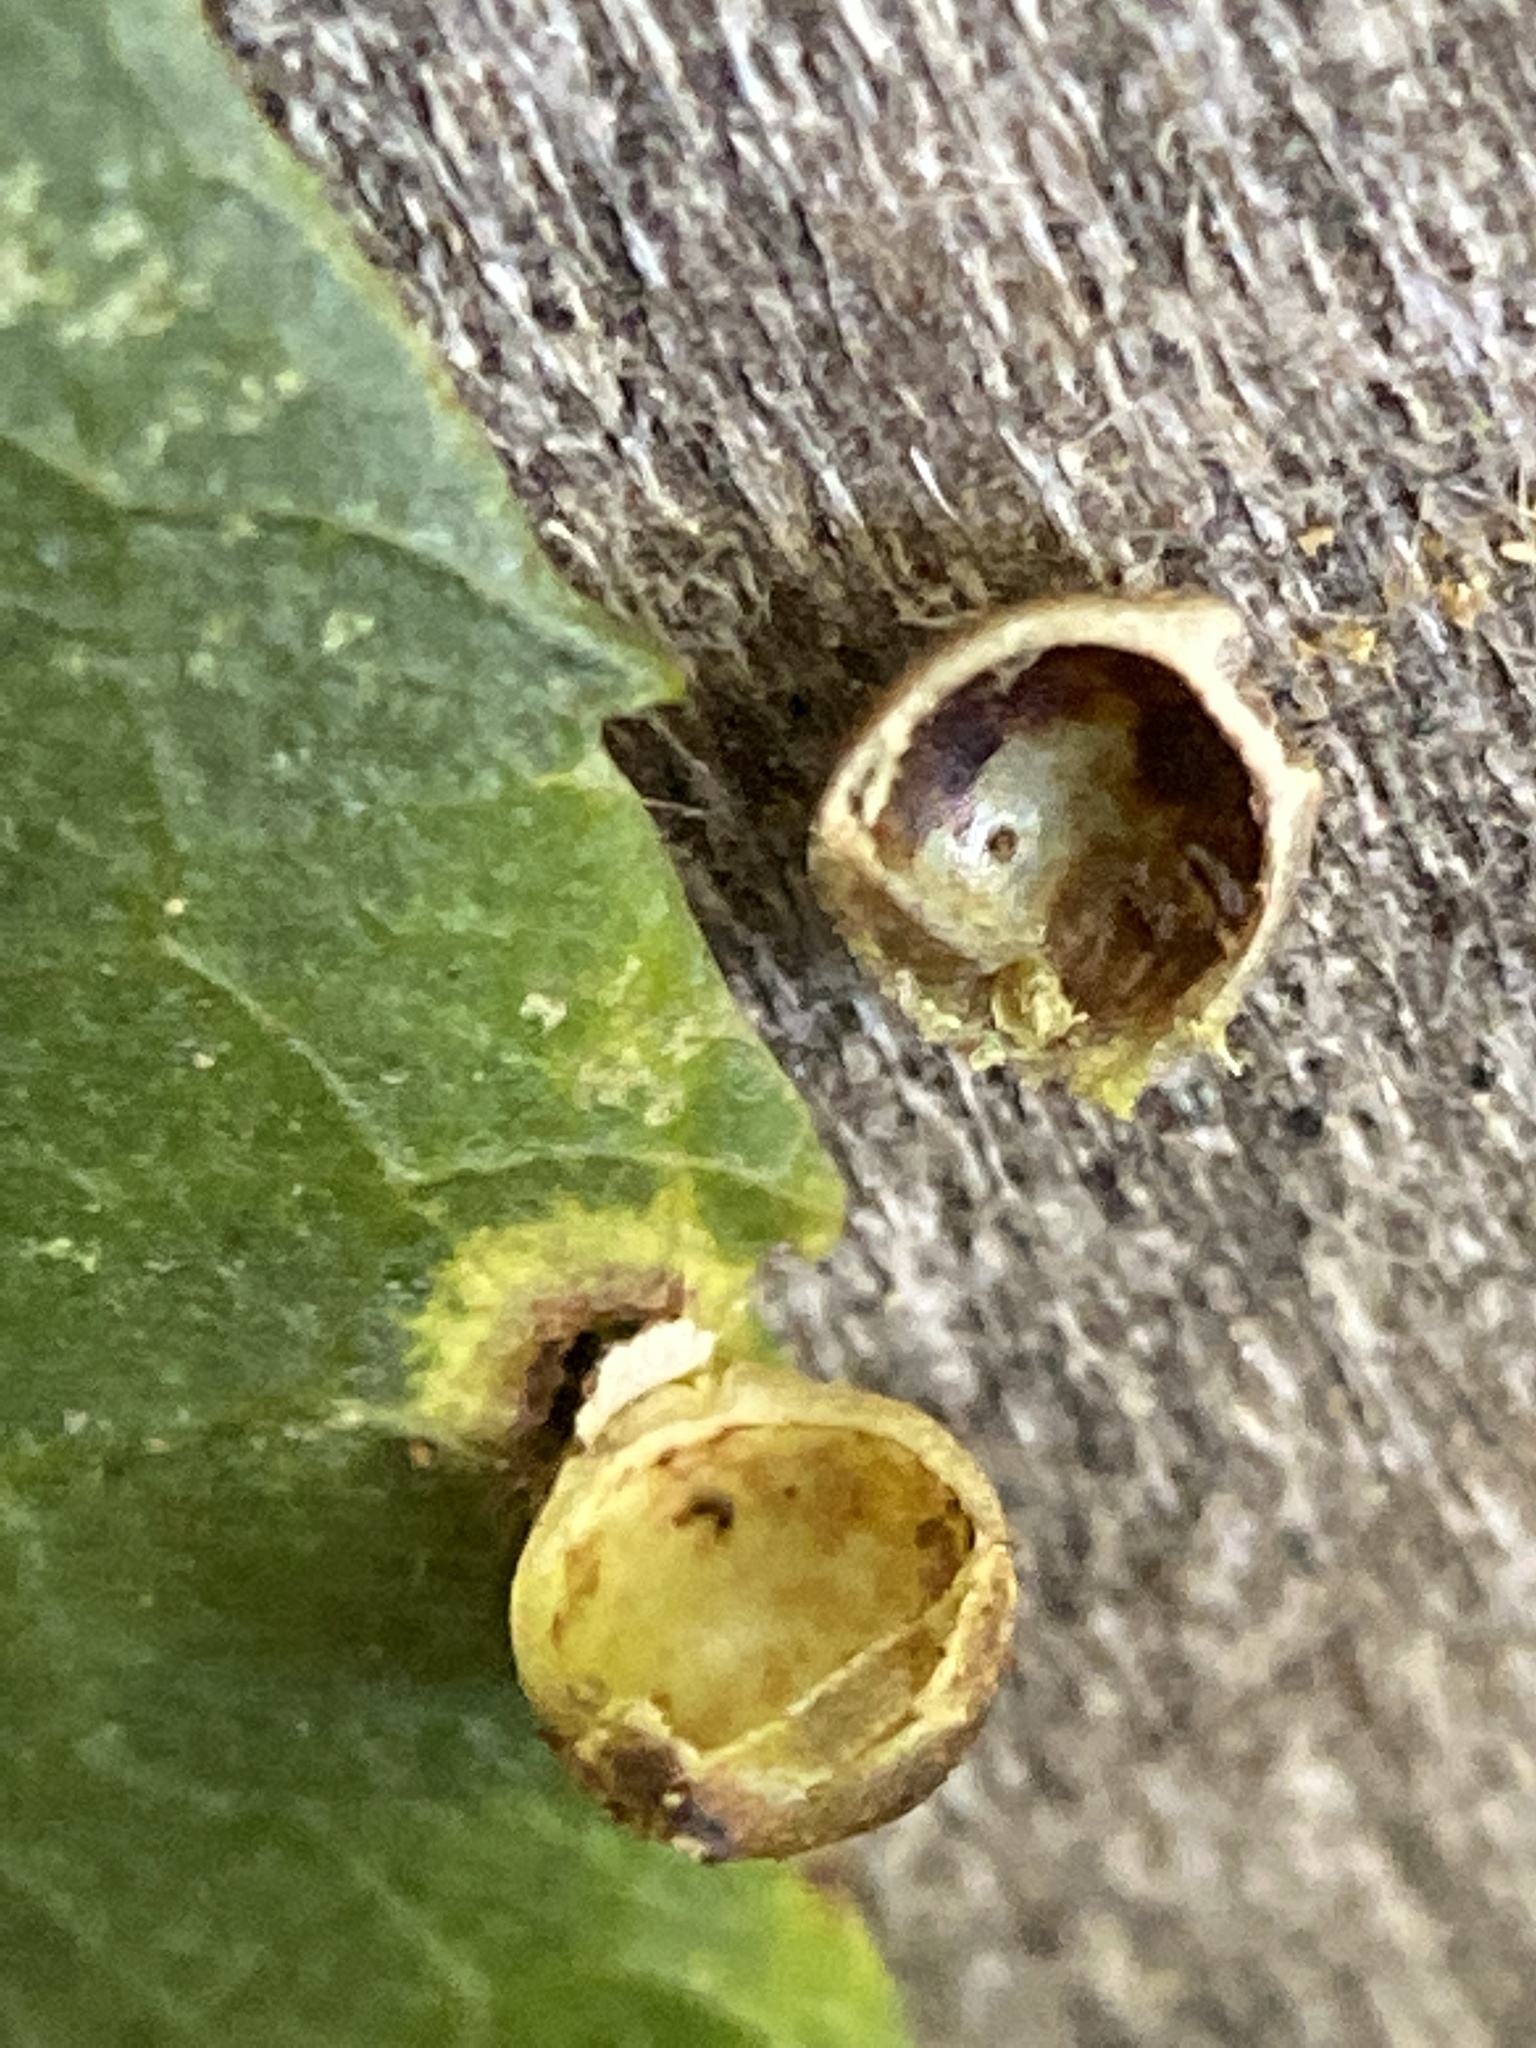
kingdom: Animalia
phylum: Arthropoda
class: Insecta
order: Diptera
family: Cecidomyiidae
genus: Caryomyia
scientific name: Caryomyia viscidolium
